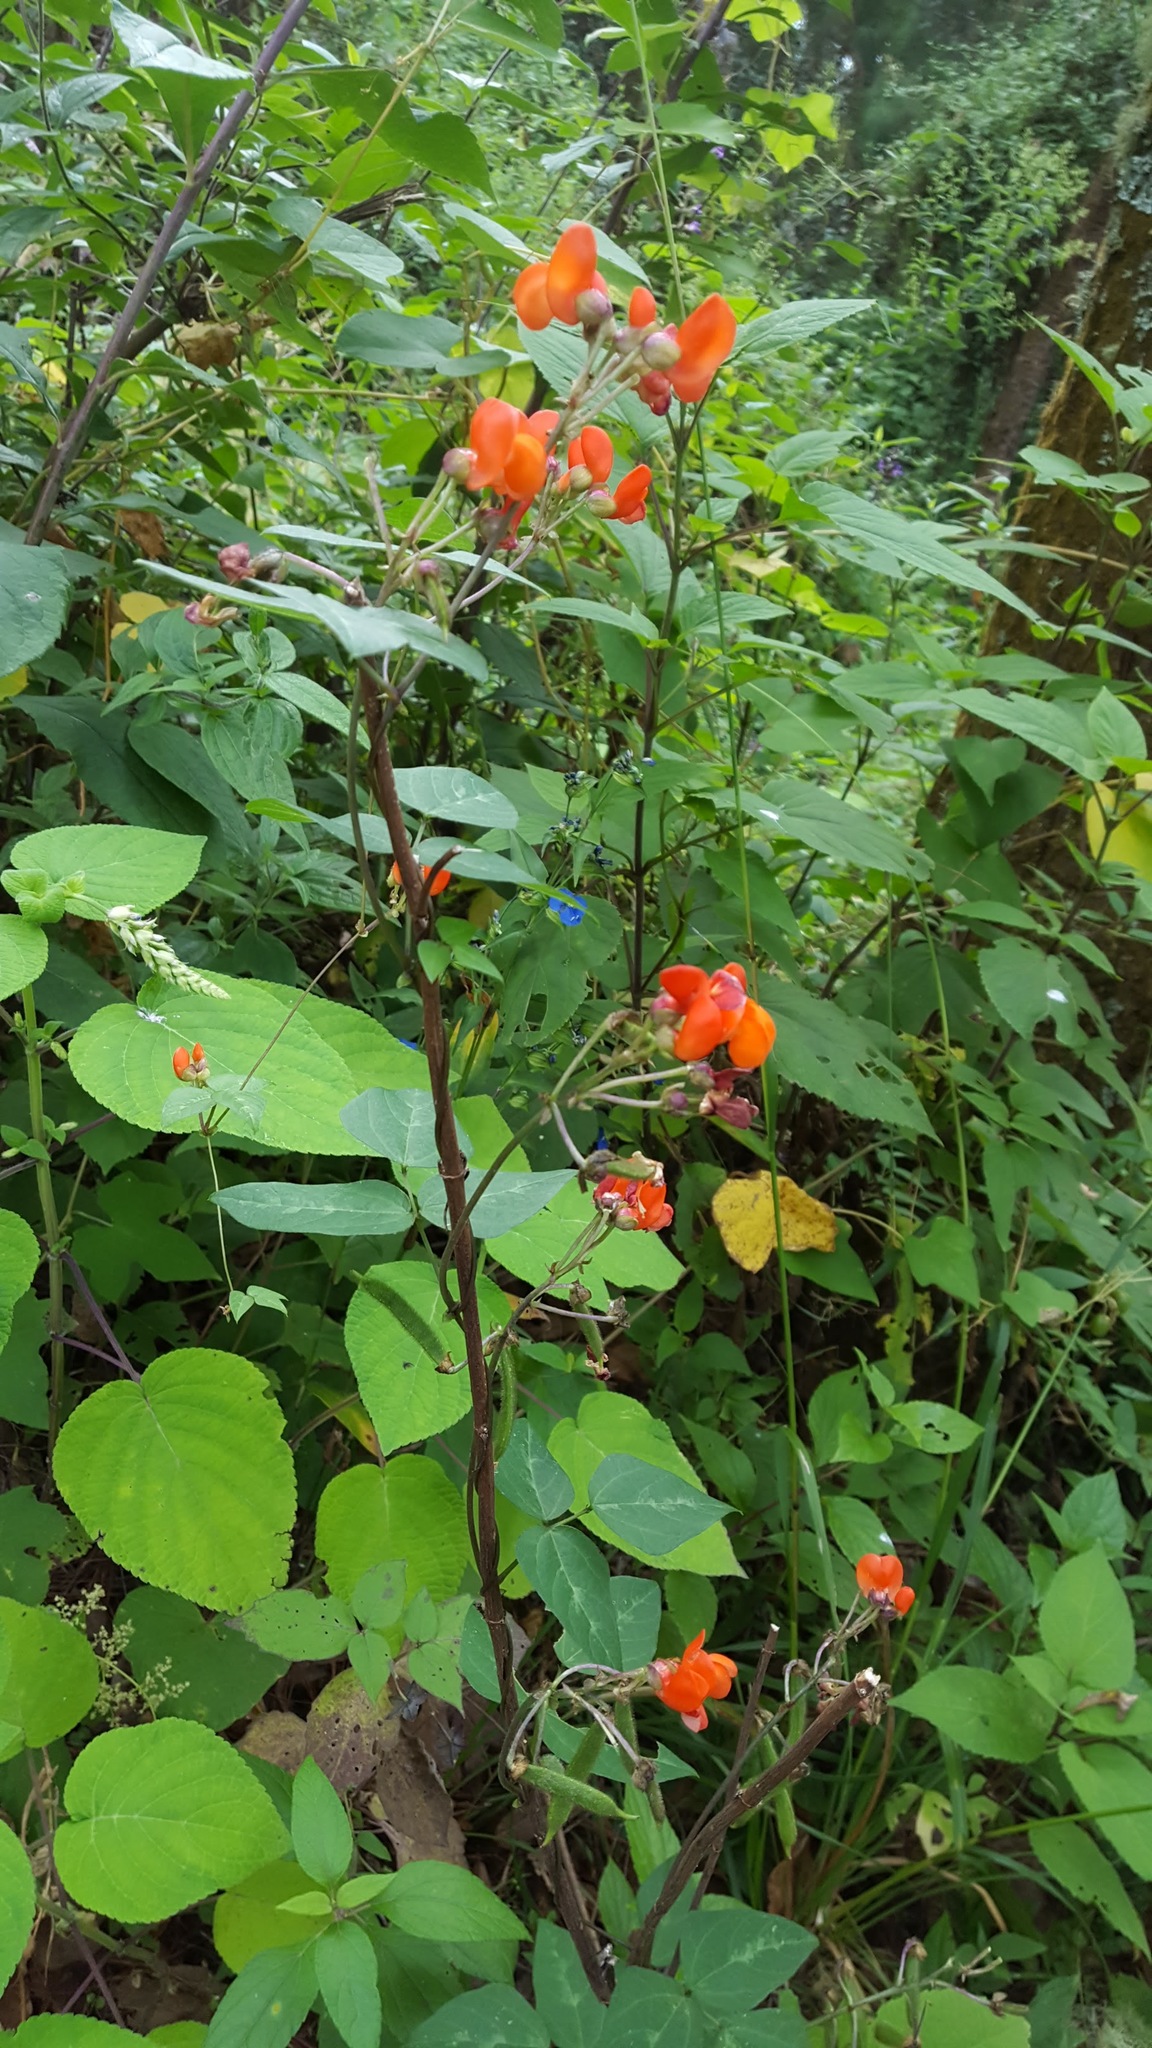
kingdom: Plantae
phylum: Tracheophyta
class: Magnoliopsida
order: Fabales
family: Fabaceae
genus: Phaseolus
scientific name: Phaseolus coccineus
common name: Runner bean
